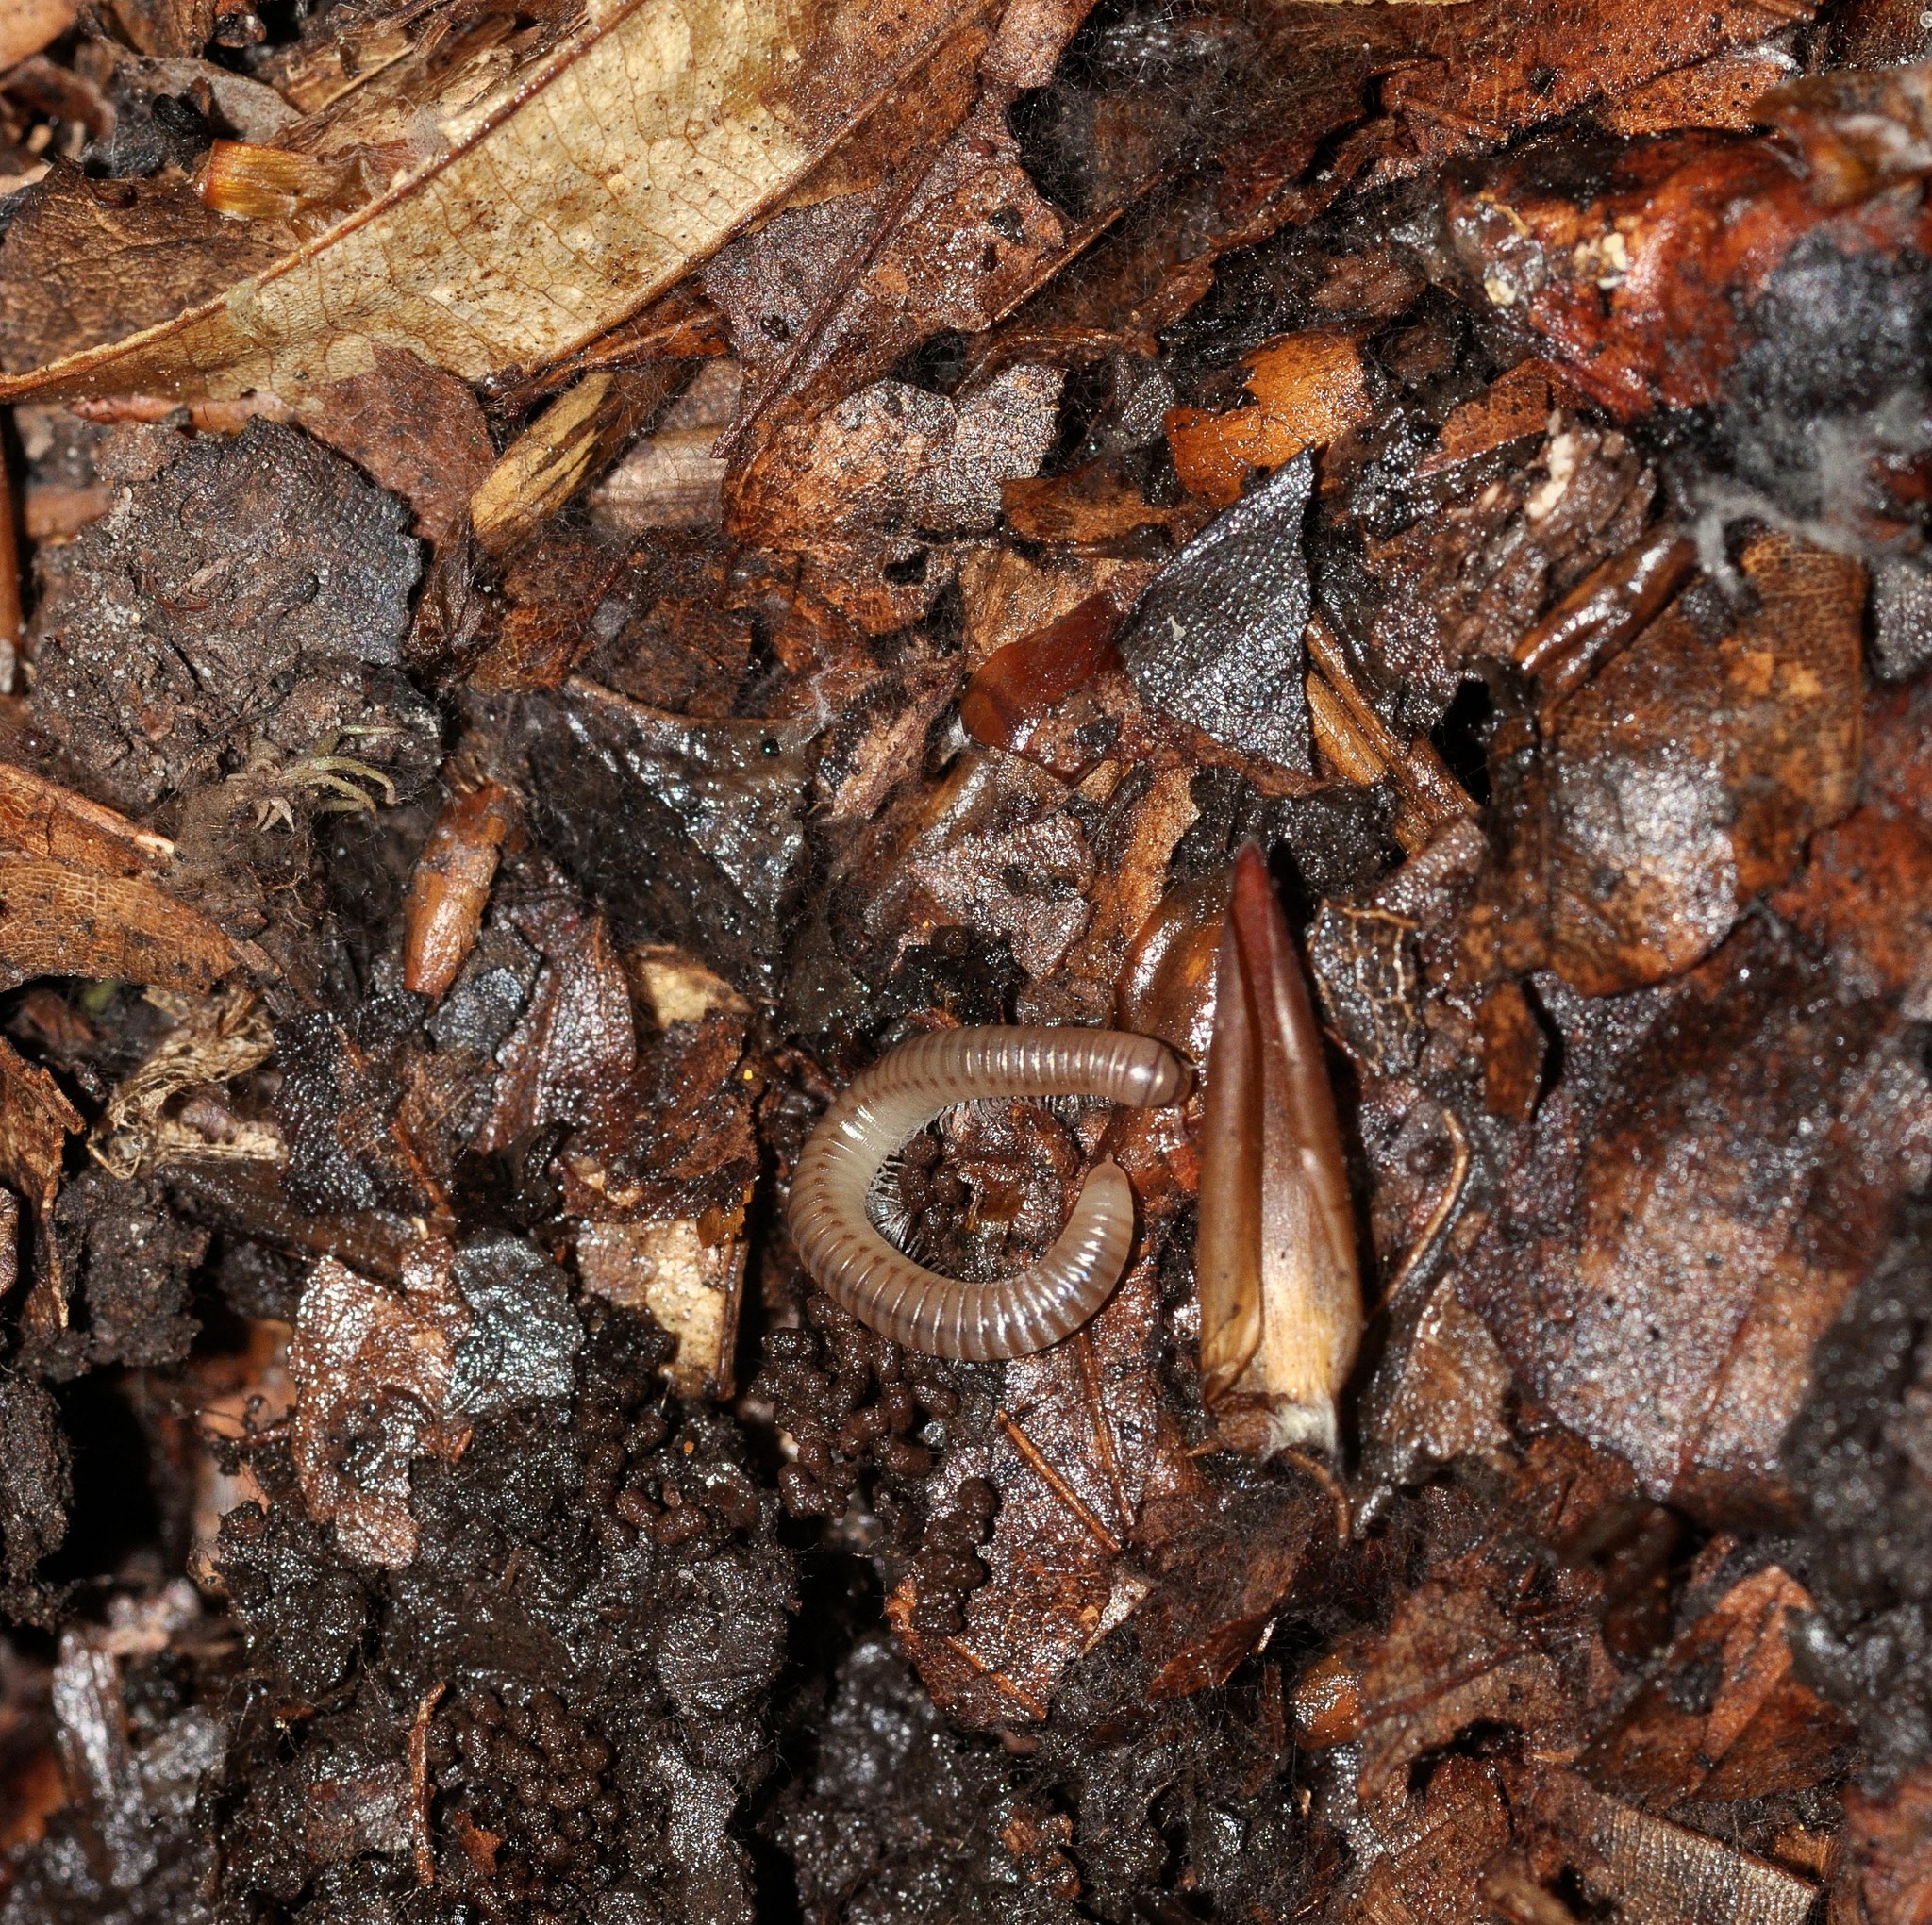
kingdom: Animalia
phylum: Arthropoda
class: Diplopoda
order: Julida
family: Julidae
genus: Cylindroiulus
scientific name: Cylindroiulus punctatus
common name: Blunt-tailed millipede
